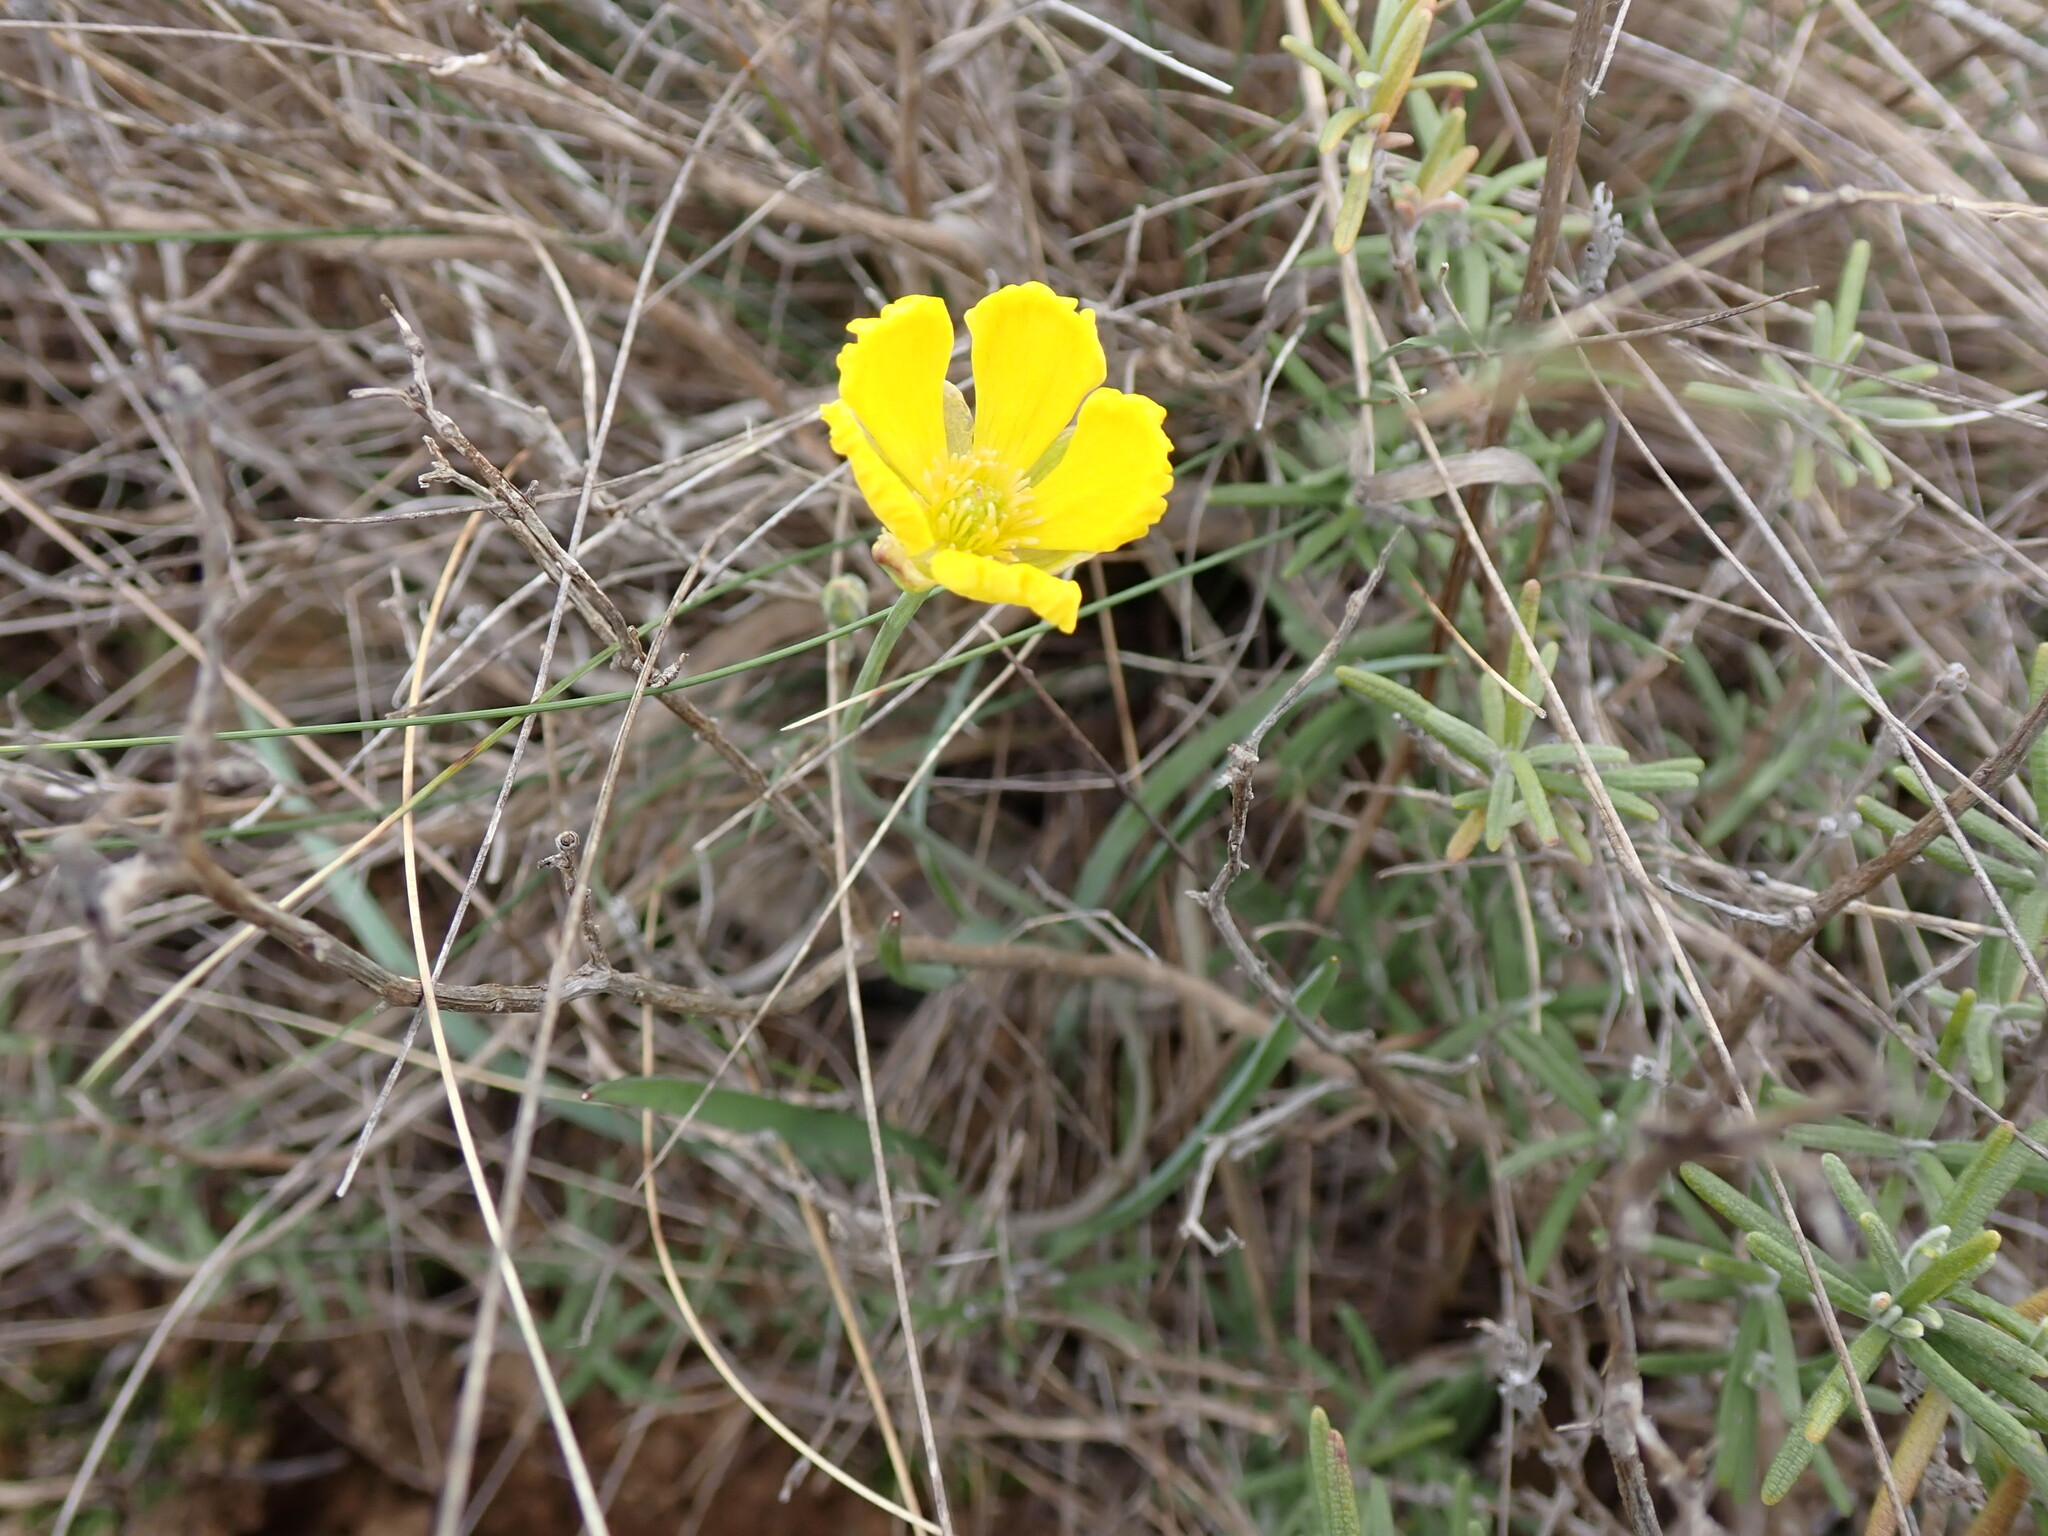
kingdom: Plantae
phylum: Tracheophyta
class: Magnoliopsida
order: Ranunculales
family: Ranunculaceae
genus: Ranunculus
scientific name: Ranunculus gramineus
